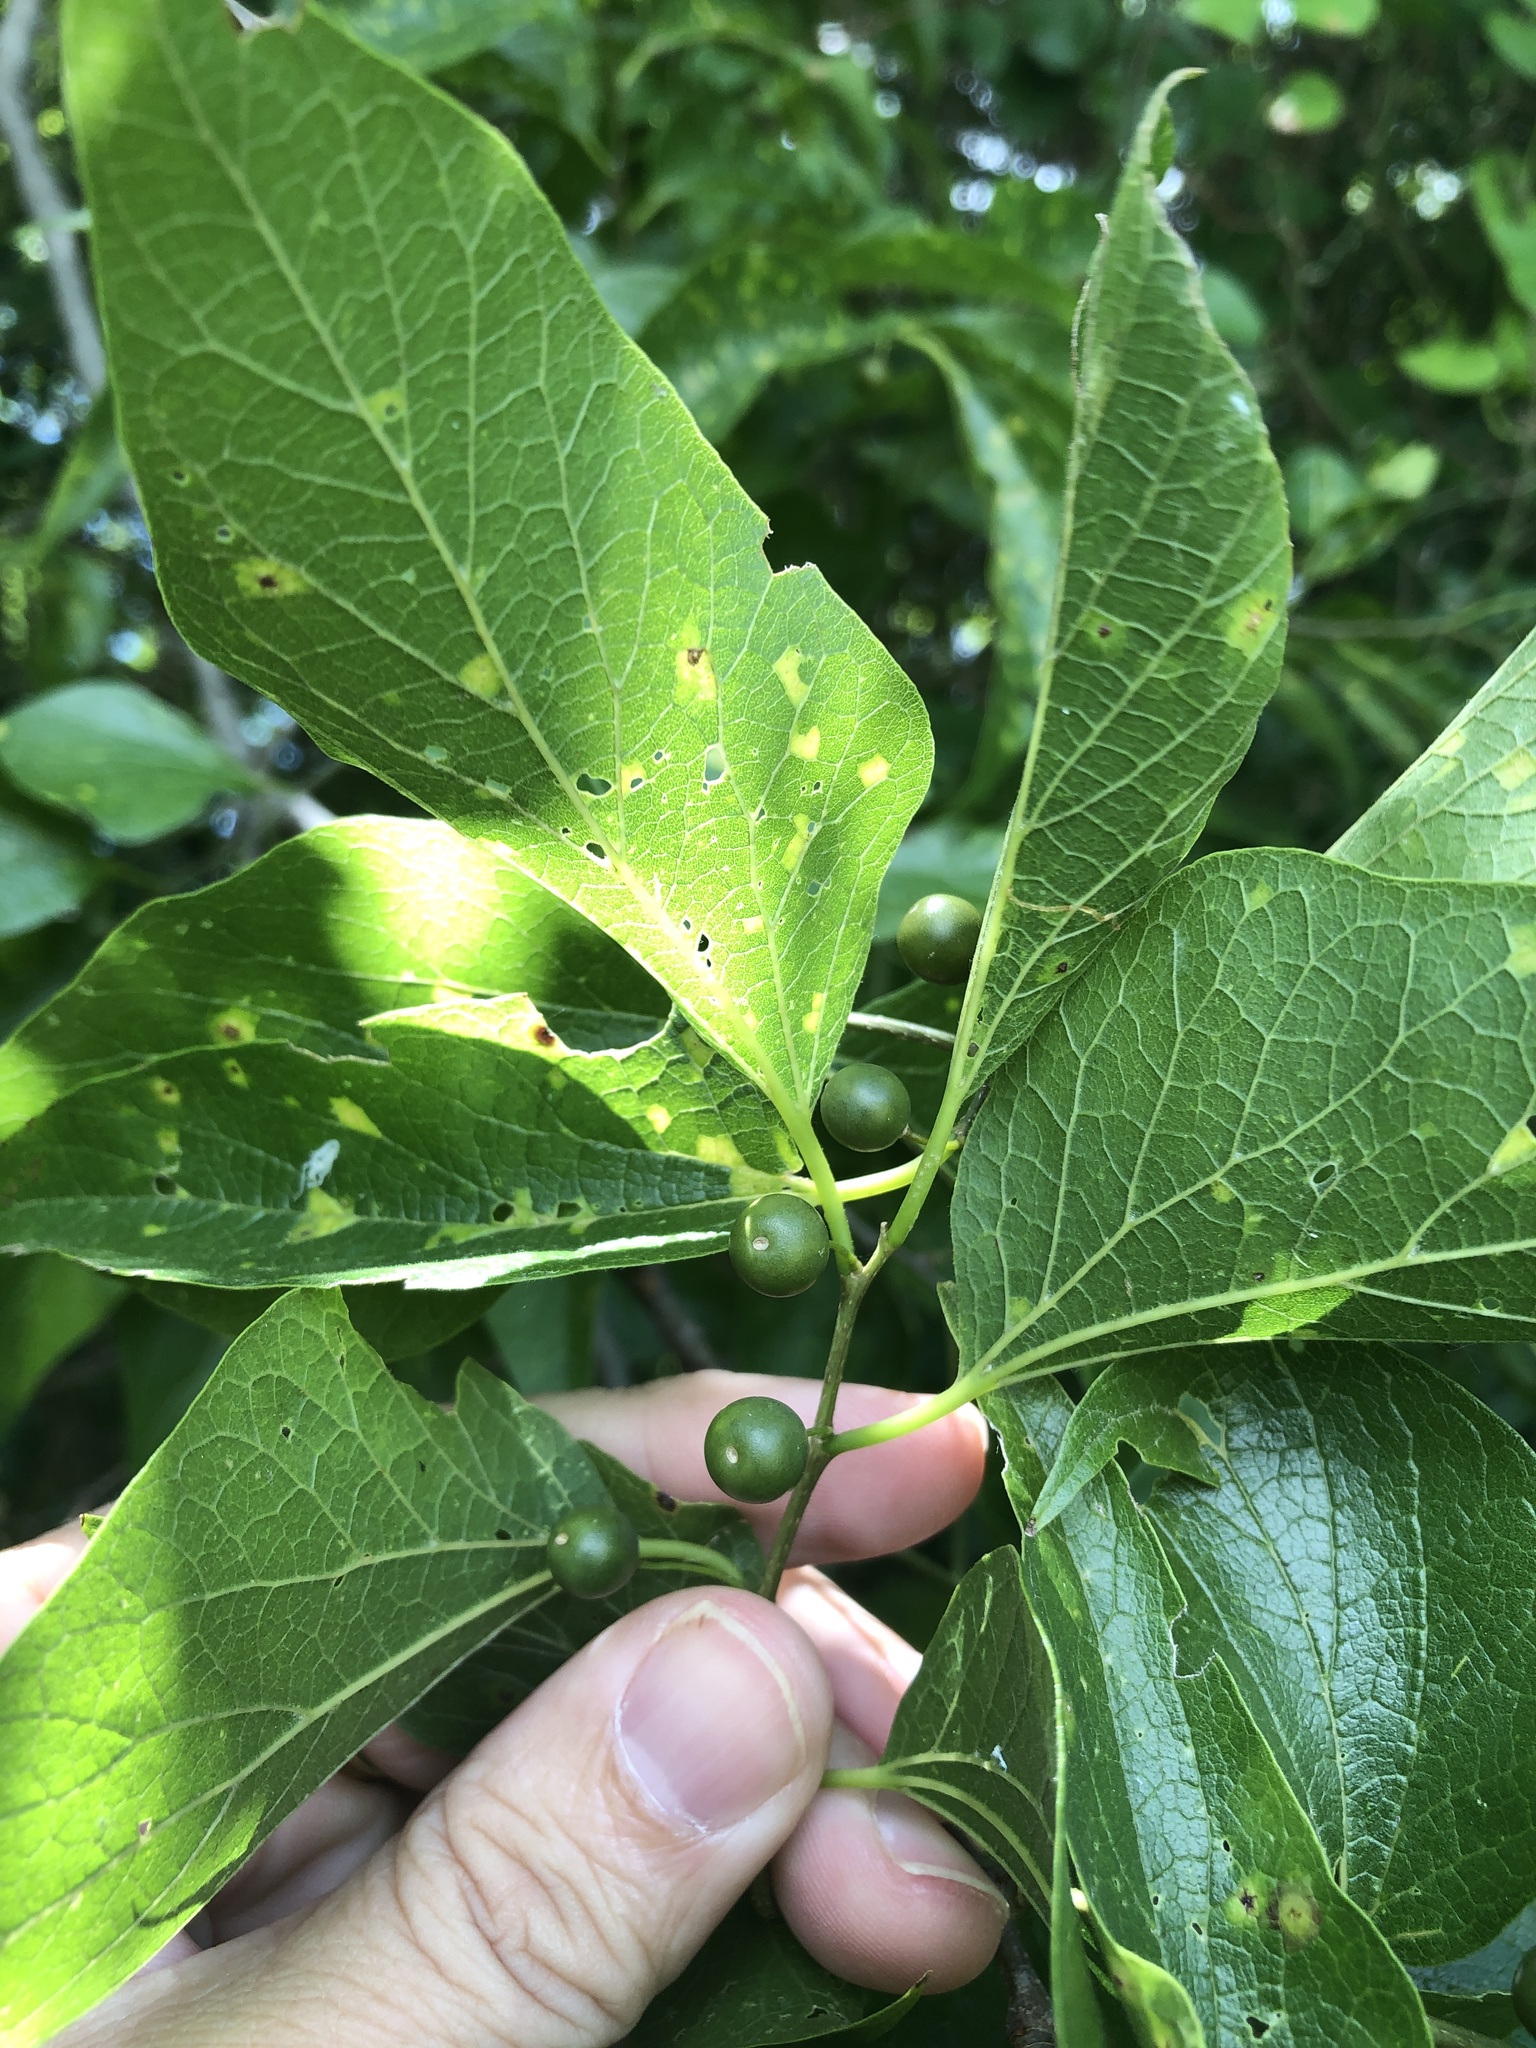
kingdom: Plantae
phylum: Tracheophyta
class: Magnoliopsida
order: Rosales
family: Cannabaceae
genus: Celtis
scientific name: Celtis laevigata
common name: Sugarberry
